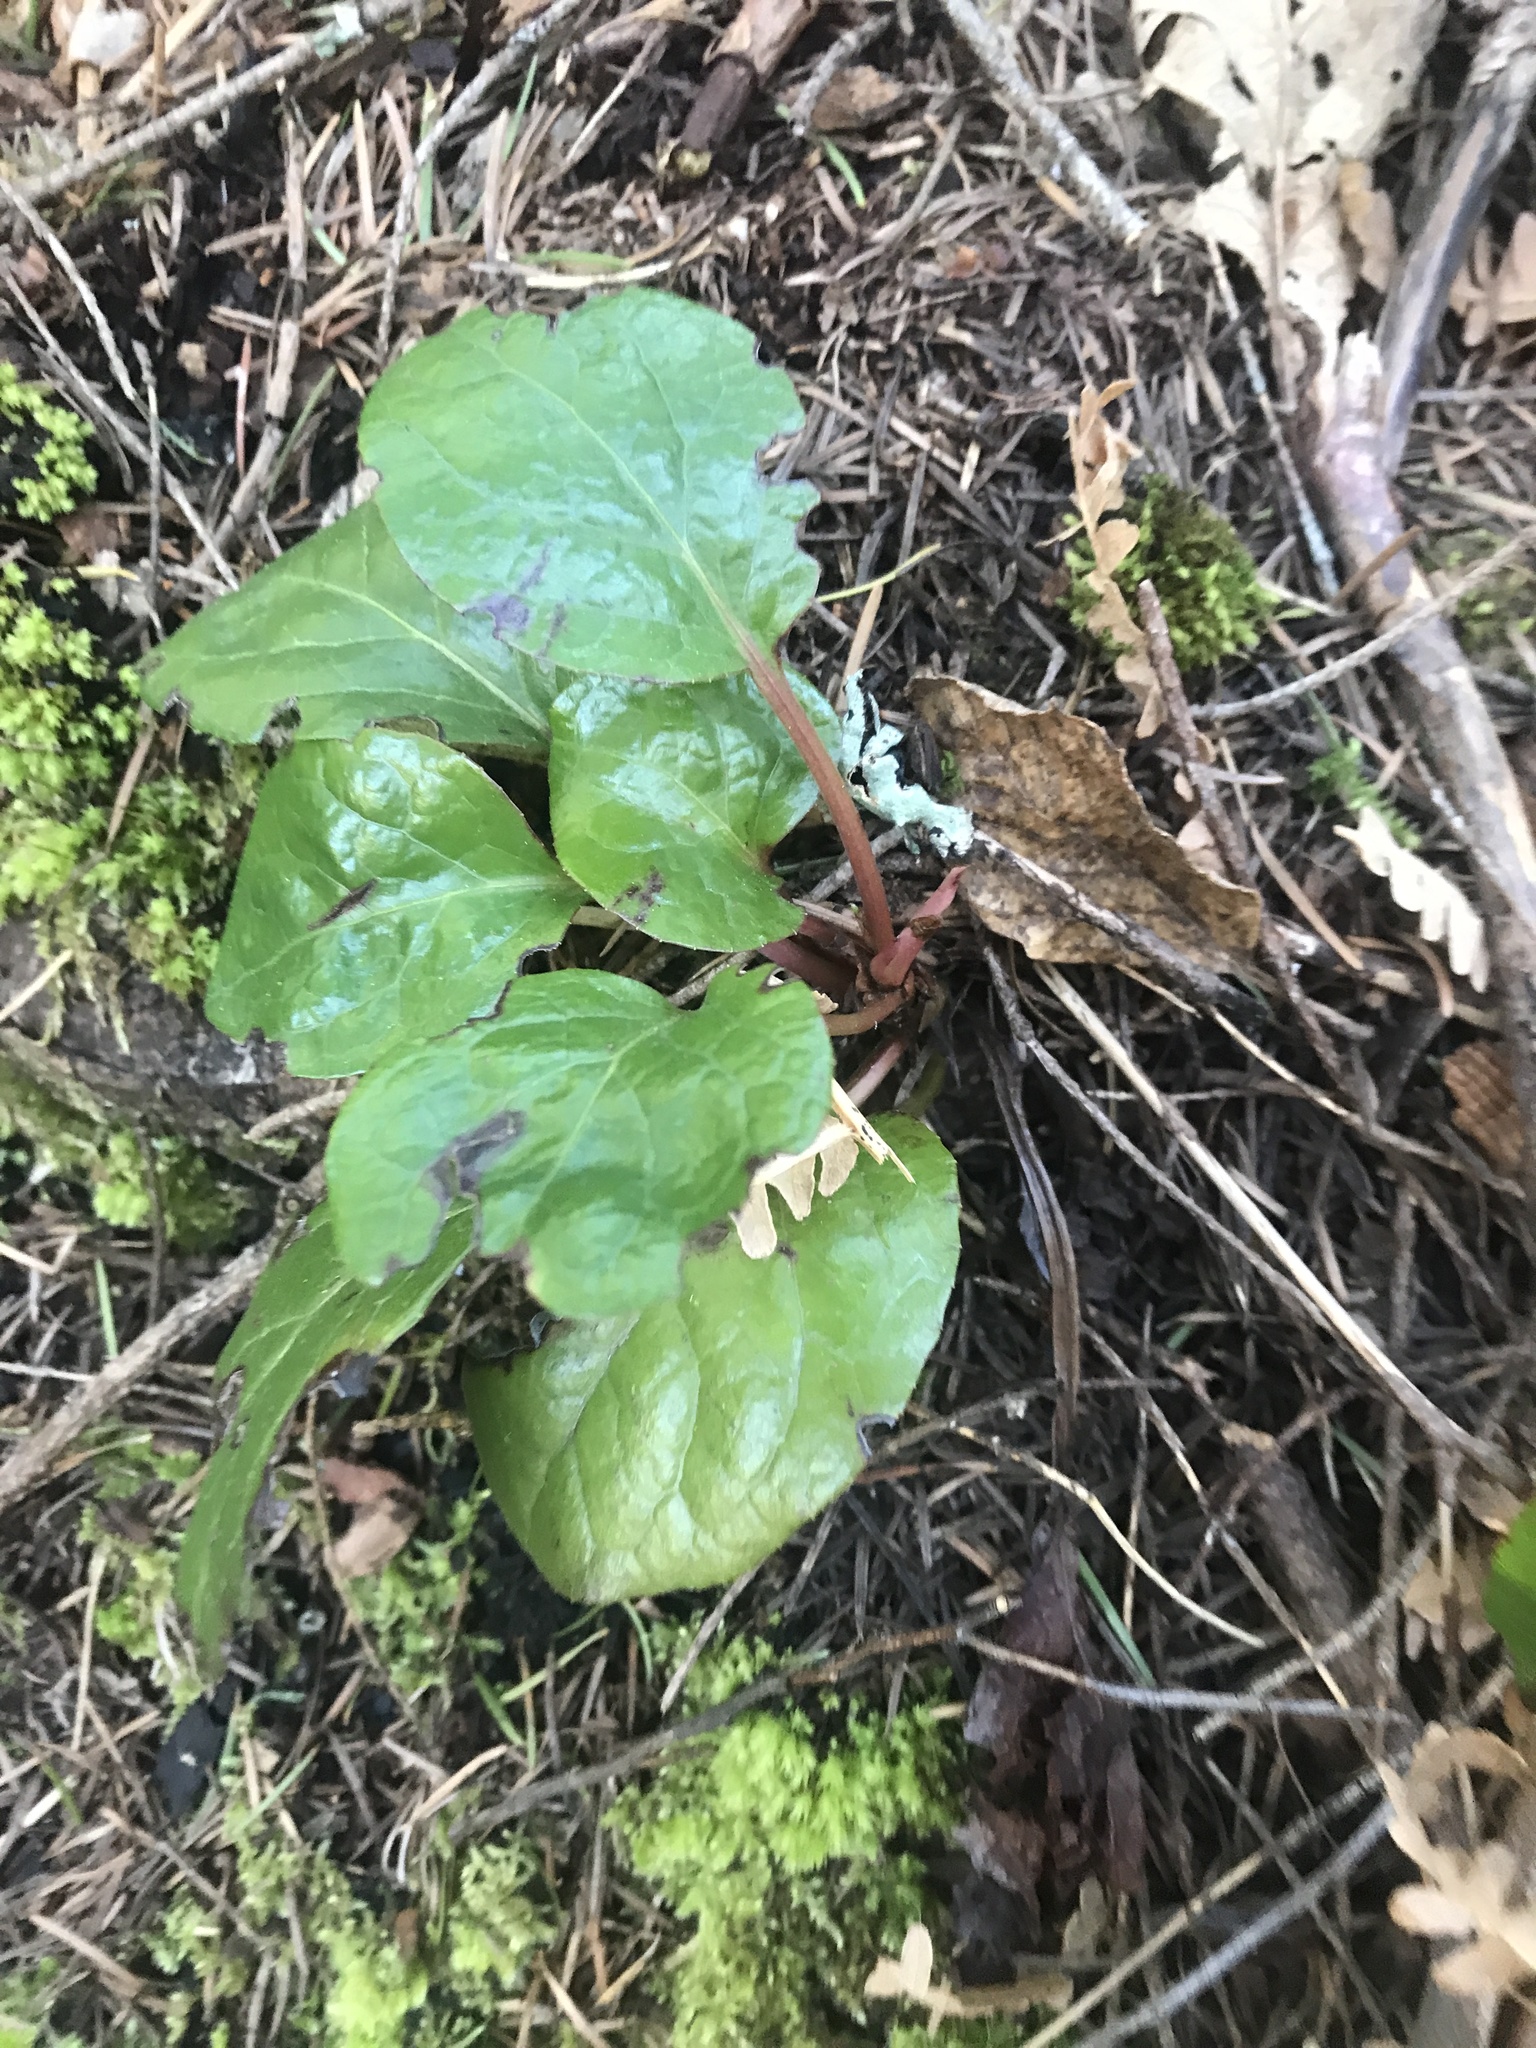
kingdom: Plantae
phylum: Tracheophyta
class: Magnoliopsida
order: Ericales
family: Ericaceae
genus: Pyrola
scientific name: Pyrola asarifolia
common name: Bog wintergreen
